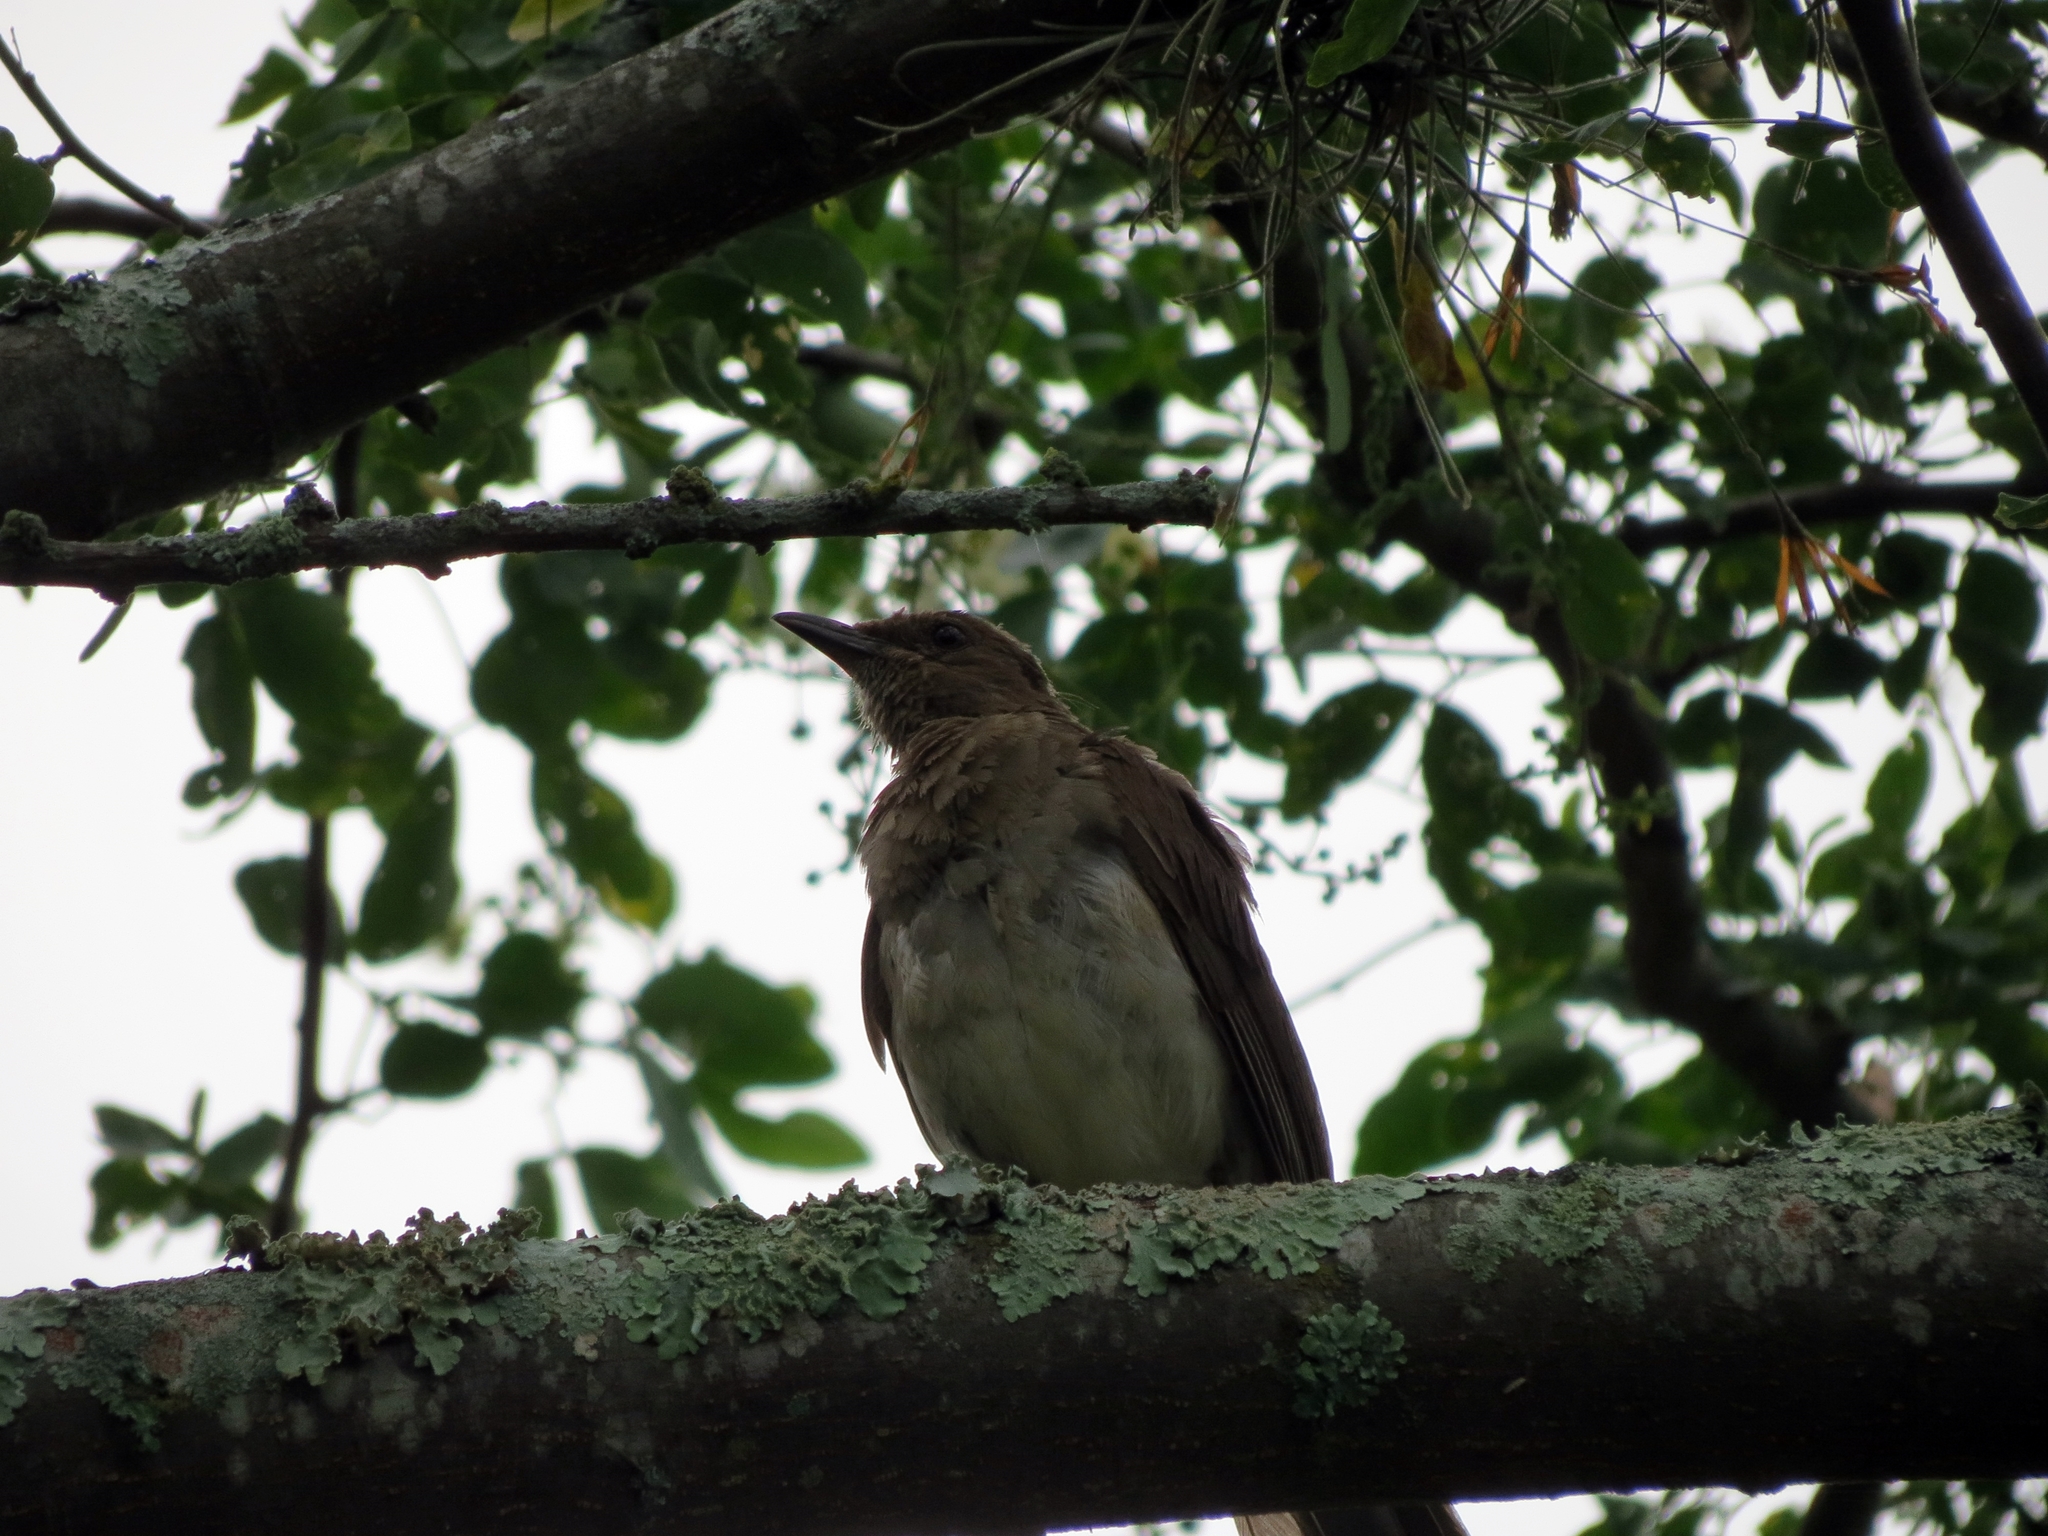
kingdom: Animalia
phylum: Chordata
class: Aves
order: Passeriformes
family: Turdidae
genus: Turdus
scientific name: Turdus ignobilis
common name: Black-billed thrush
